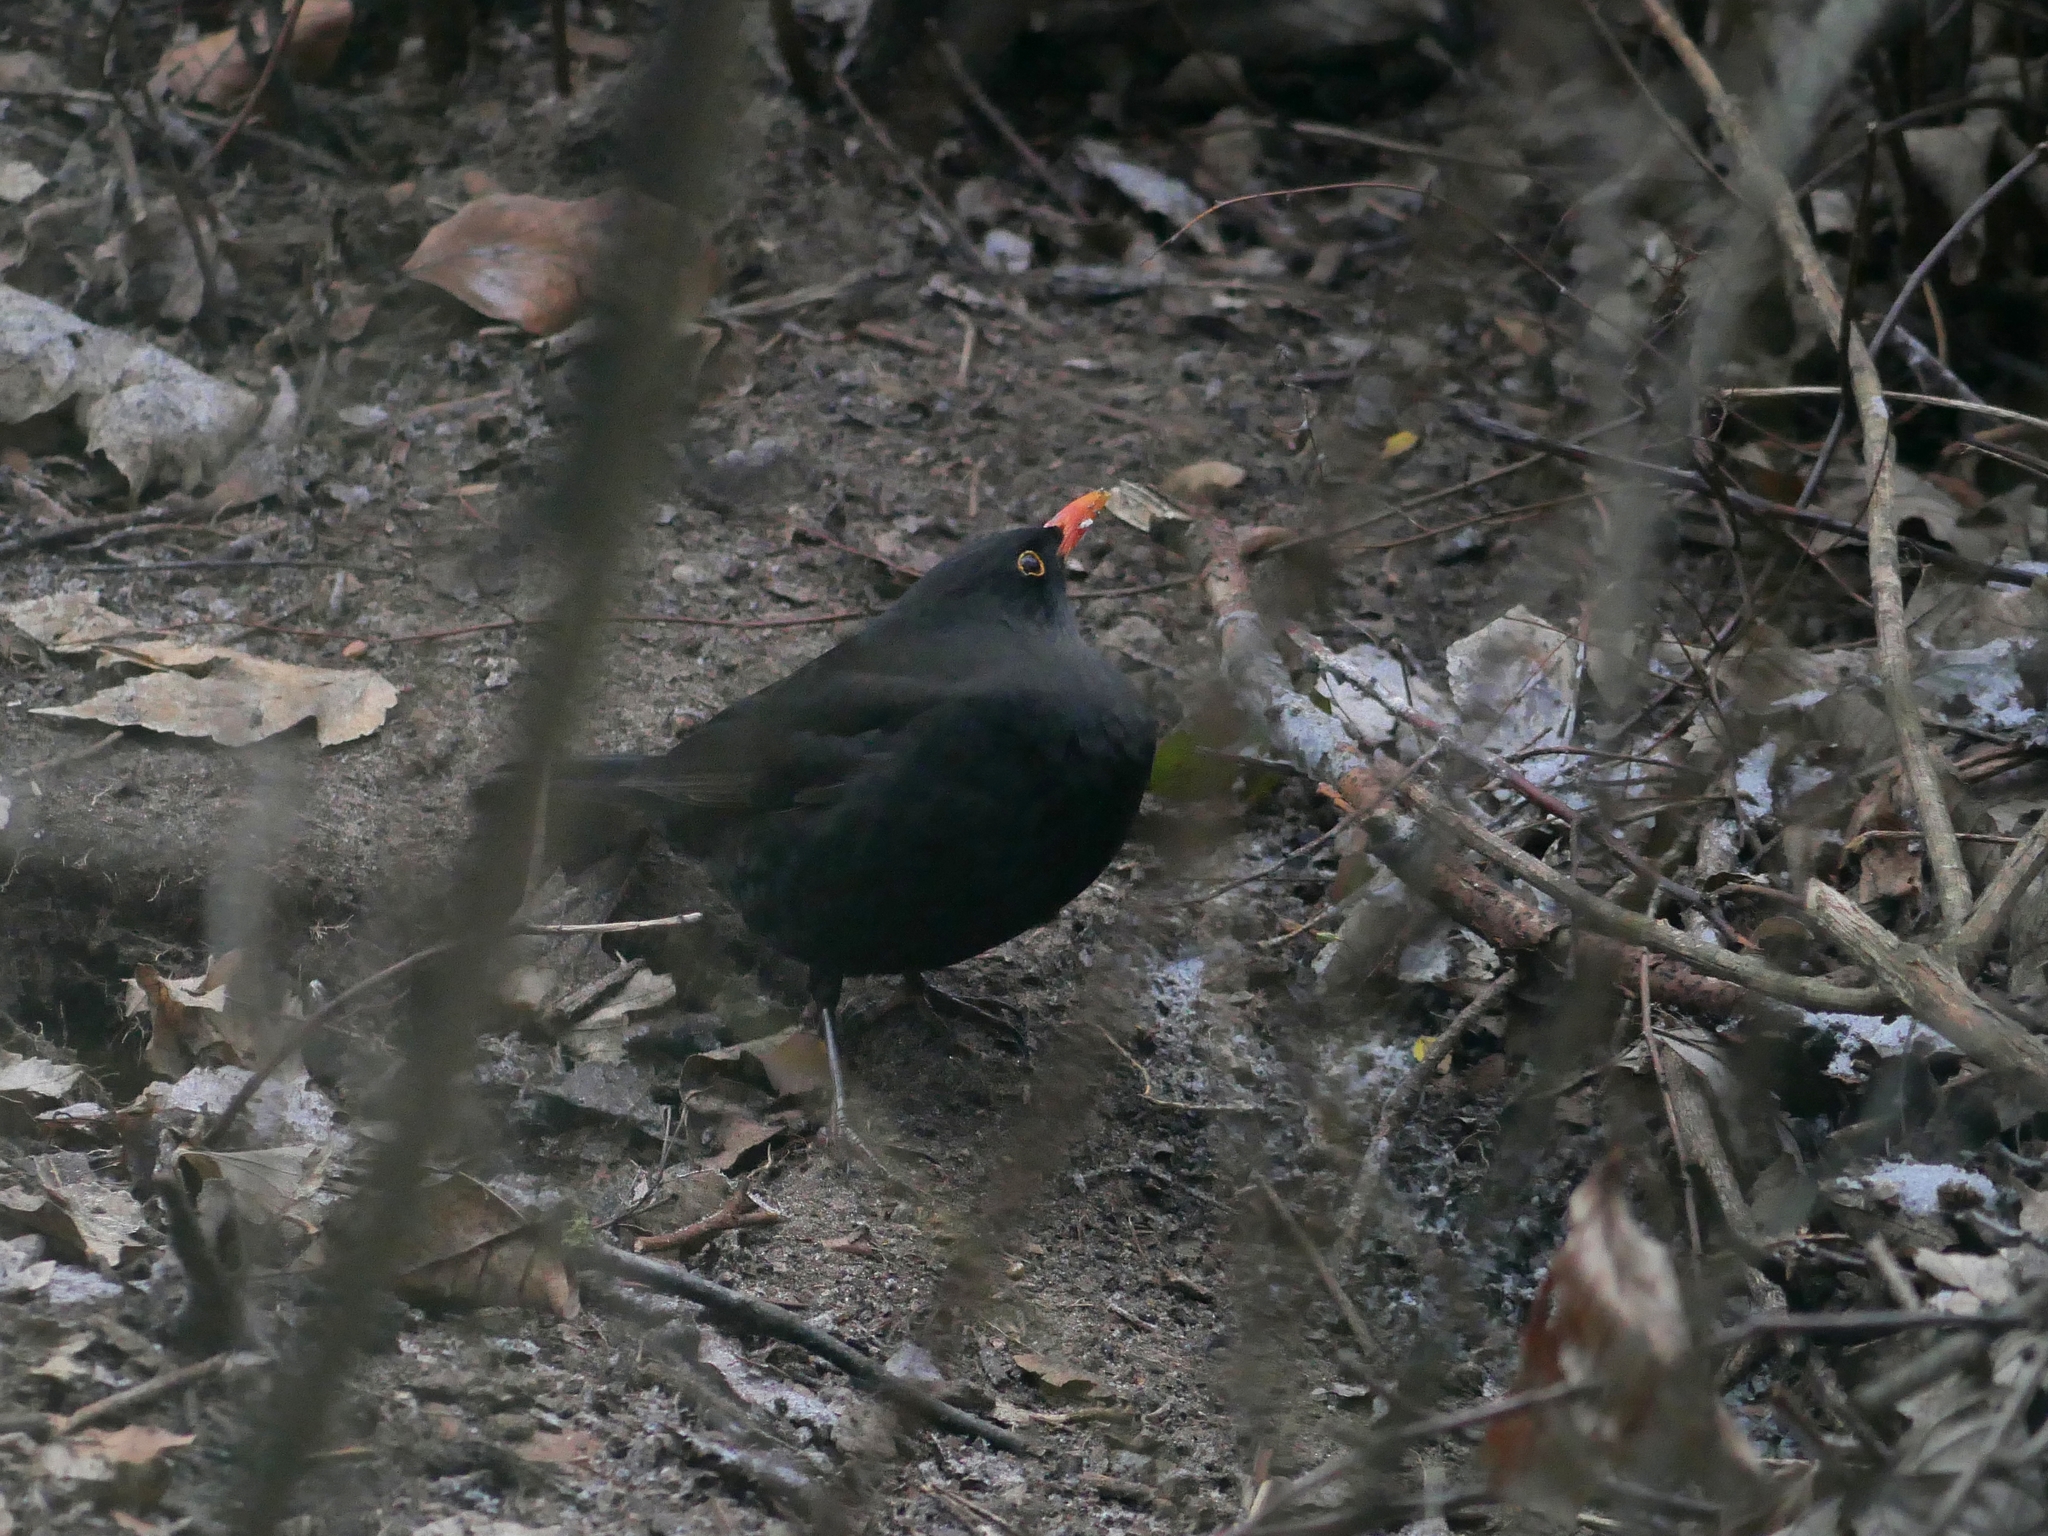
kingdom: Animalia
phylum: Chordata
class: Aves
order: Passeriformes
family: Turdidae
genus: Turdus
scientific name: Turdus merula
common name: Common blackbird
